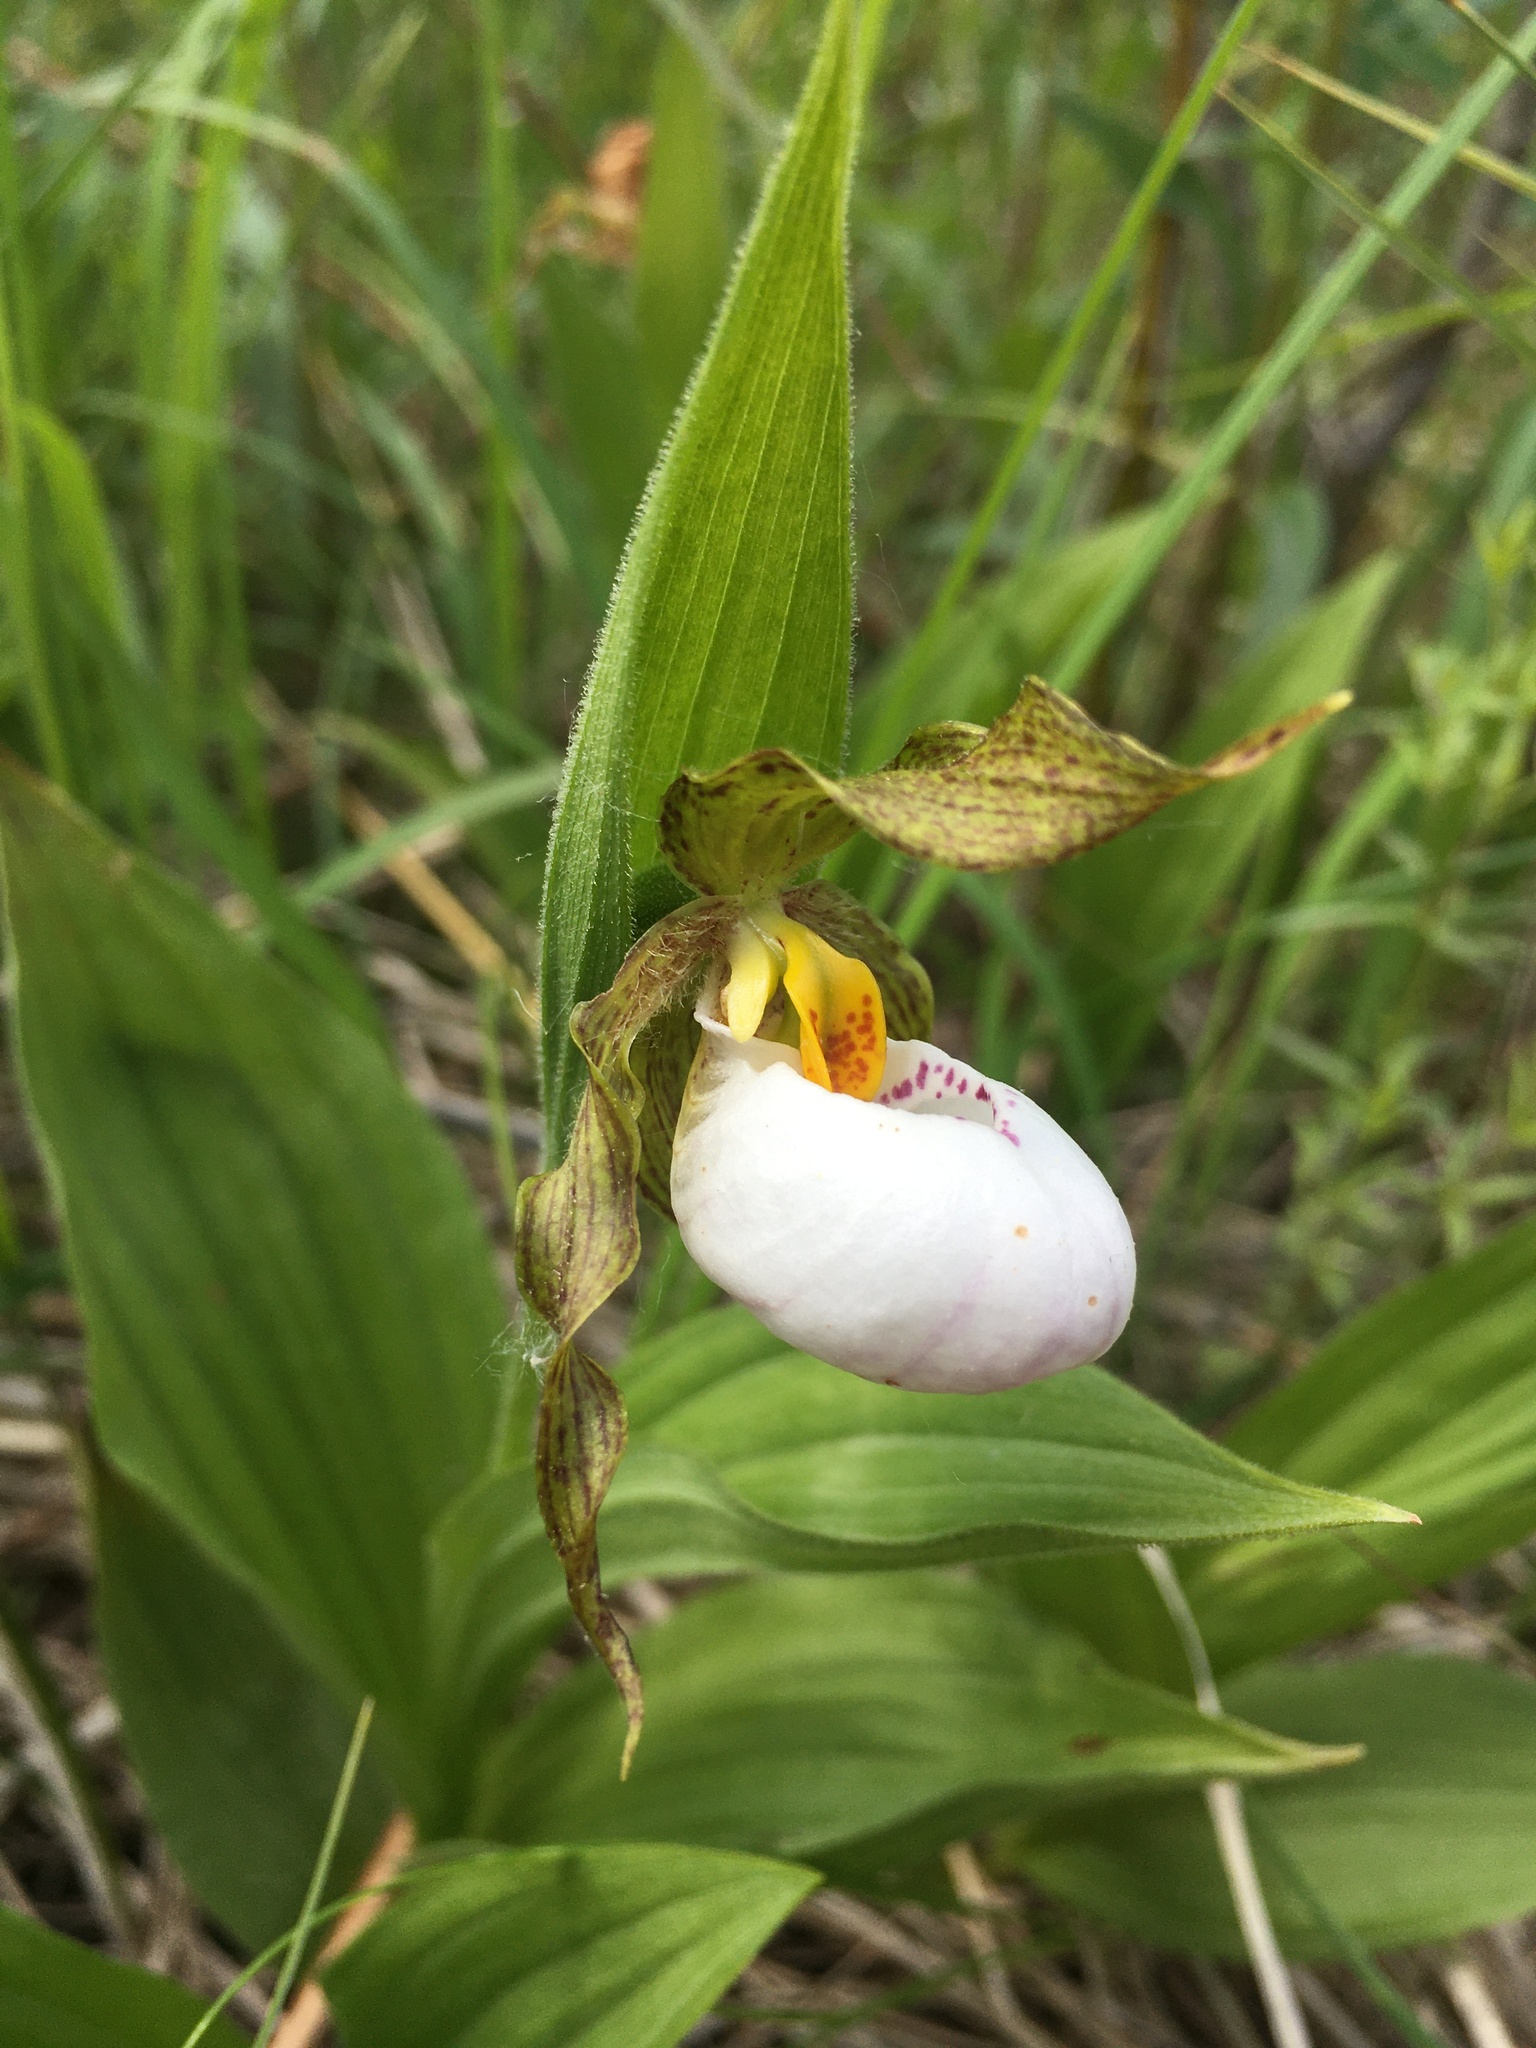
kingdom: Plantae
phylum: Tracheophyta
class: Liliopsida
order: Asparagales
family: Orchidaceae
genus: Cypripedium
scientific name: Cypripedium candidum
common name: White lady's-slipper
